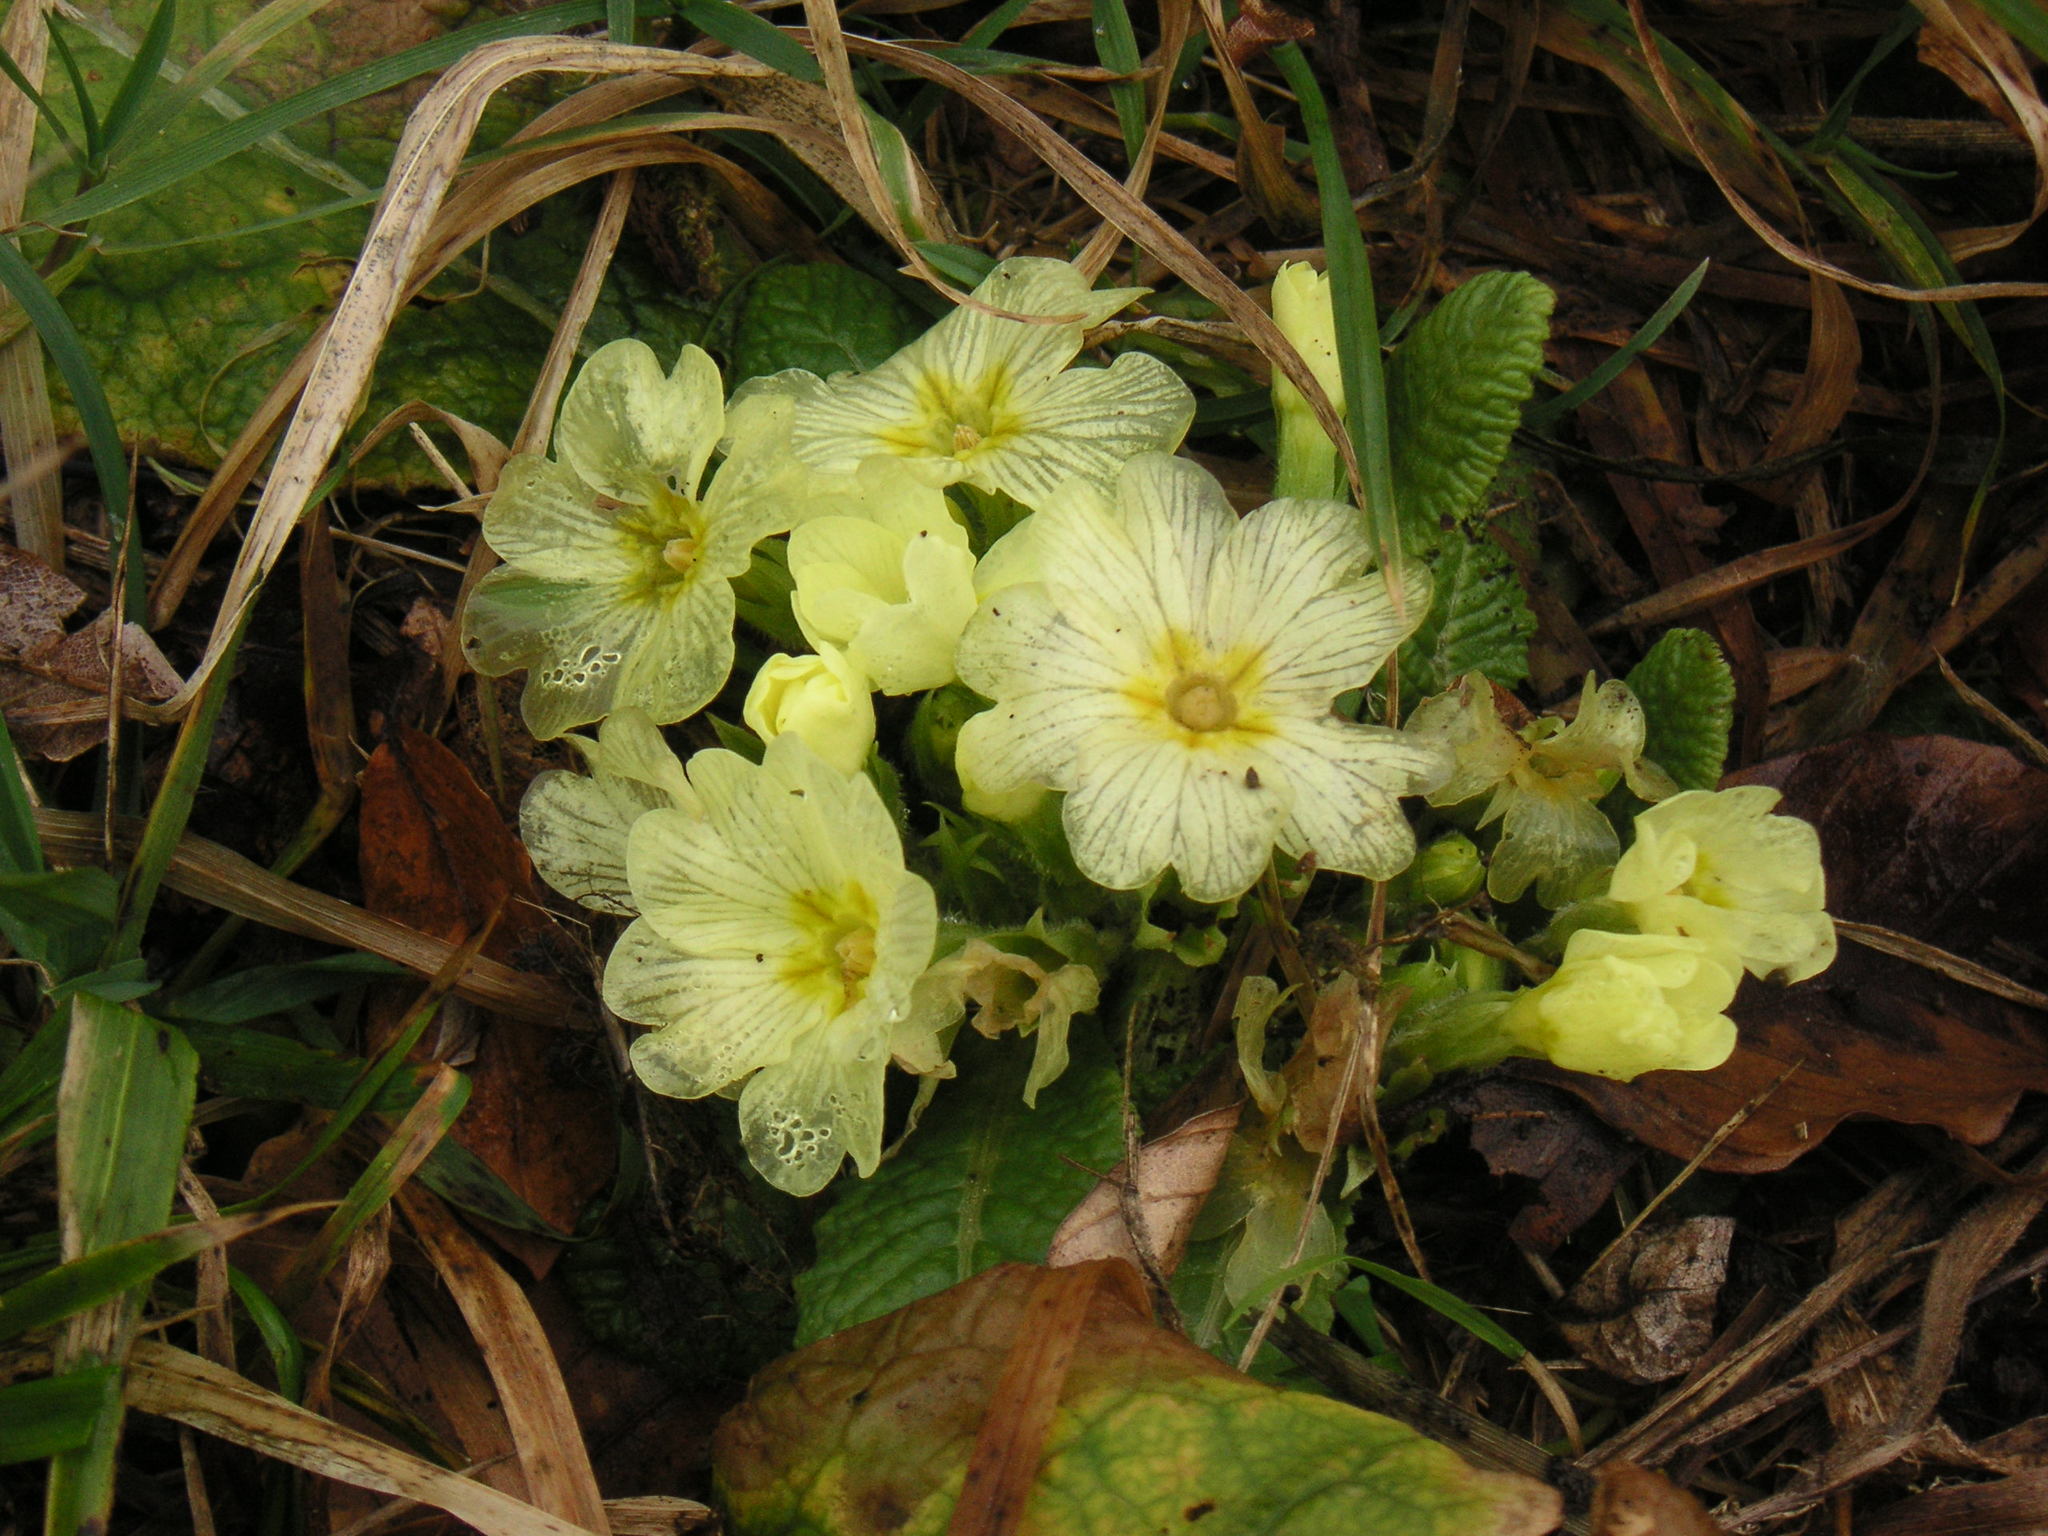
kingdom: Plantae
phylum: Tracheophyta
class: Magnoliopsida
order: Ericales
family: Primulaceae
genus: Primula
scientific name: Primula vulgaris
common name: Primrose
